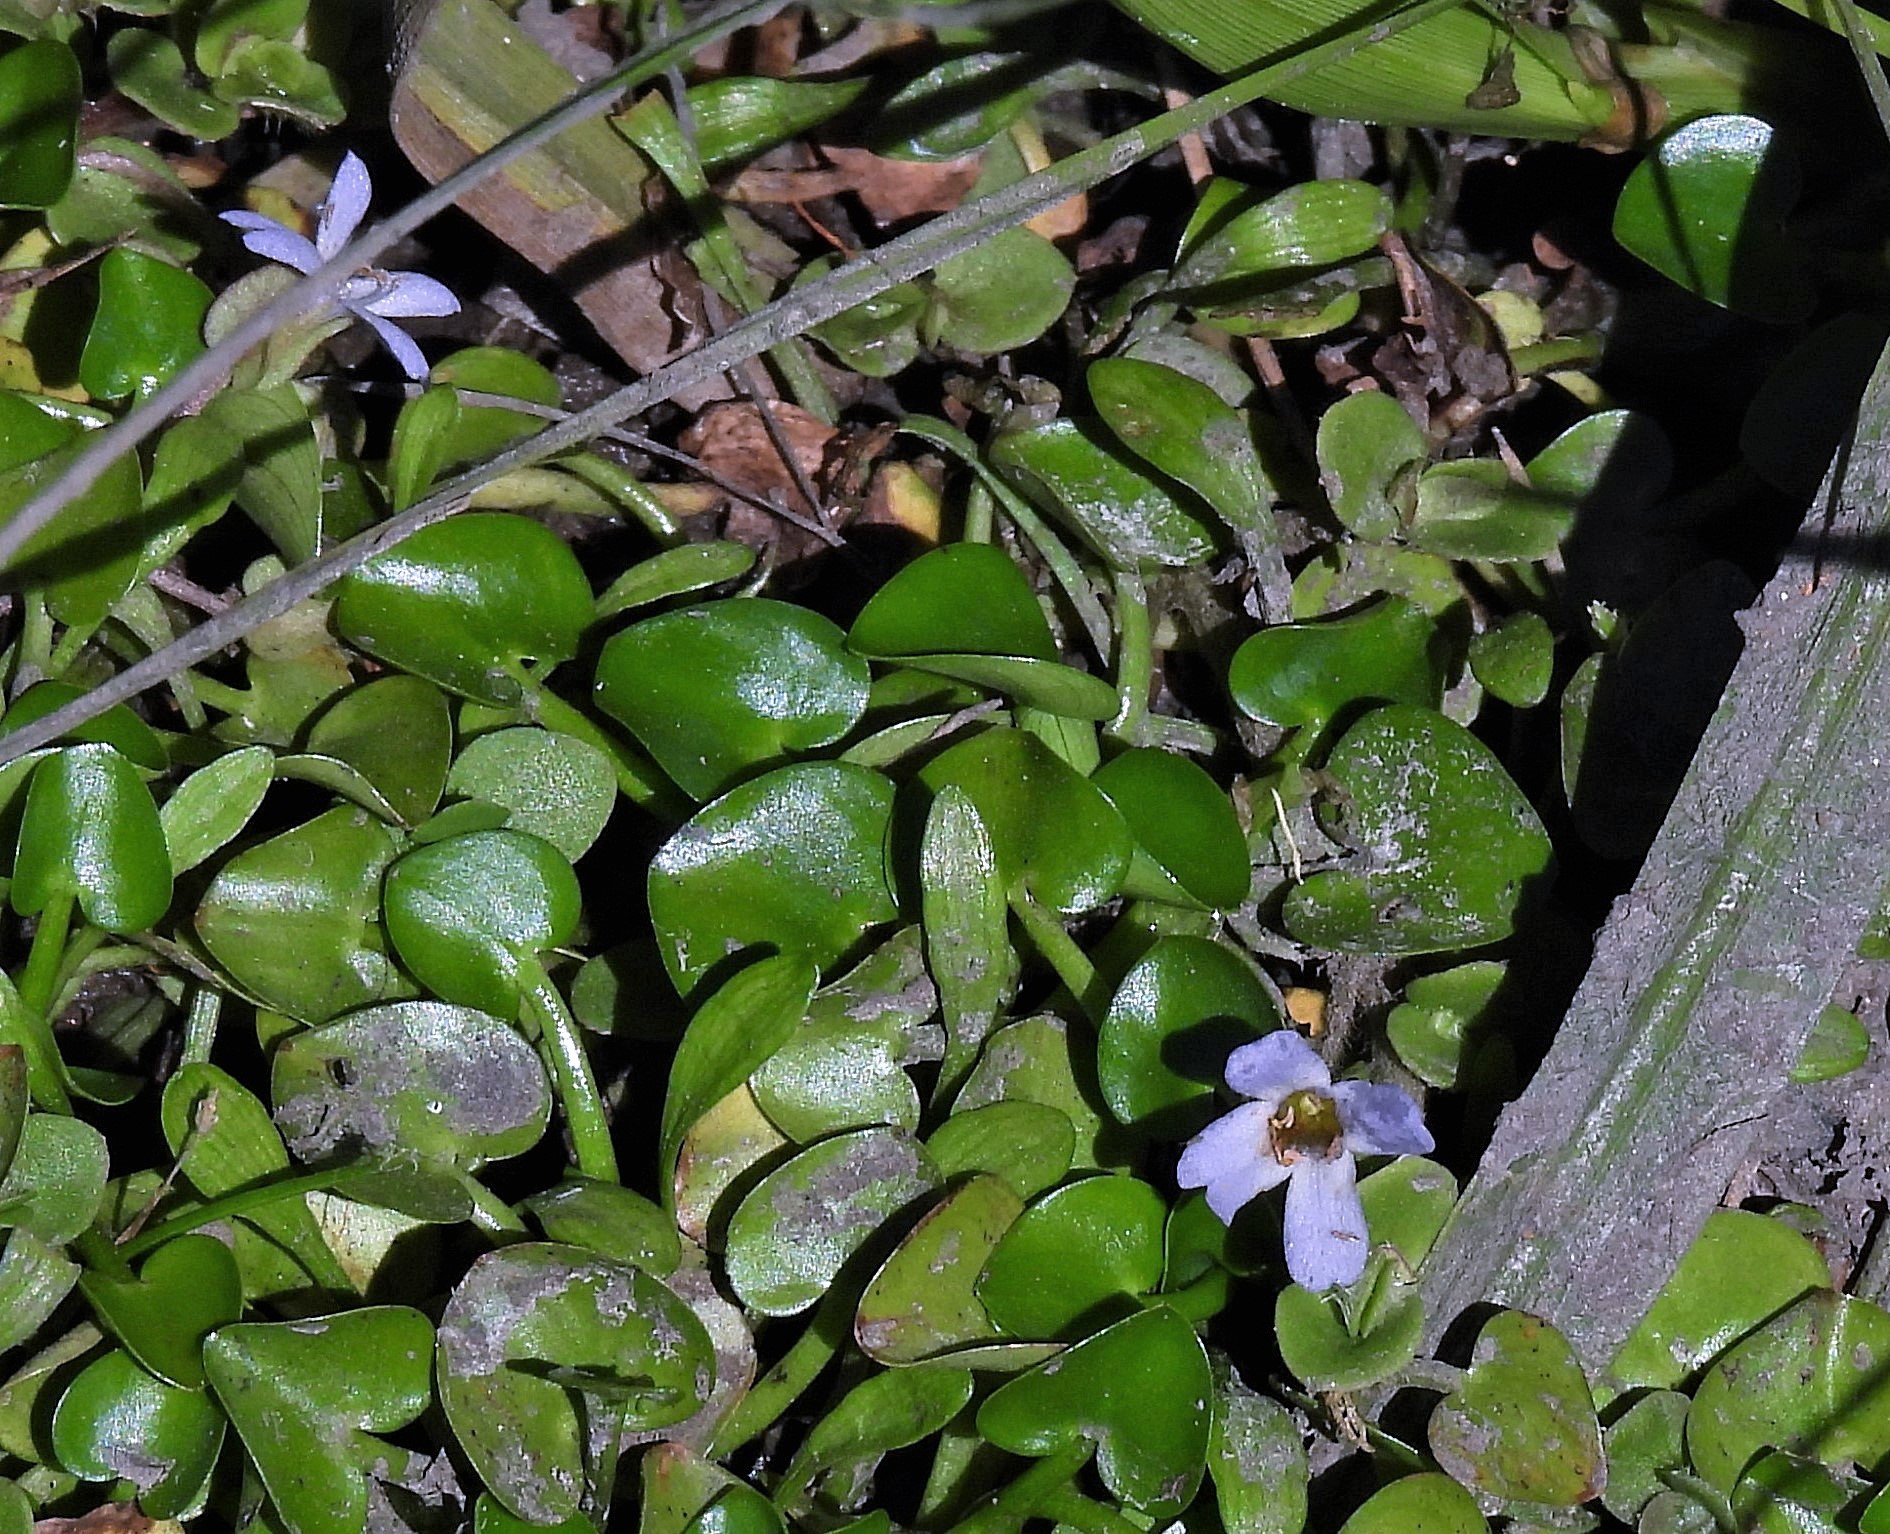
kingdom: Plantae
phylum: Tracheophyta
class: Magnoliopsida
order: Lamiales
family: Plantaginaceae
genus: Bacopa
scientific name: Bacopa monnieri
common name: Indian-pennywort
